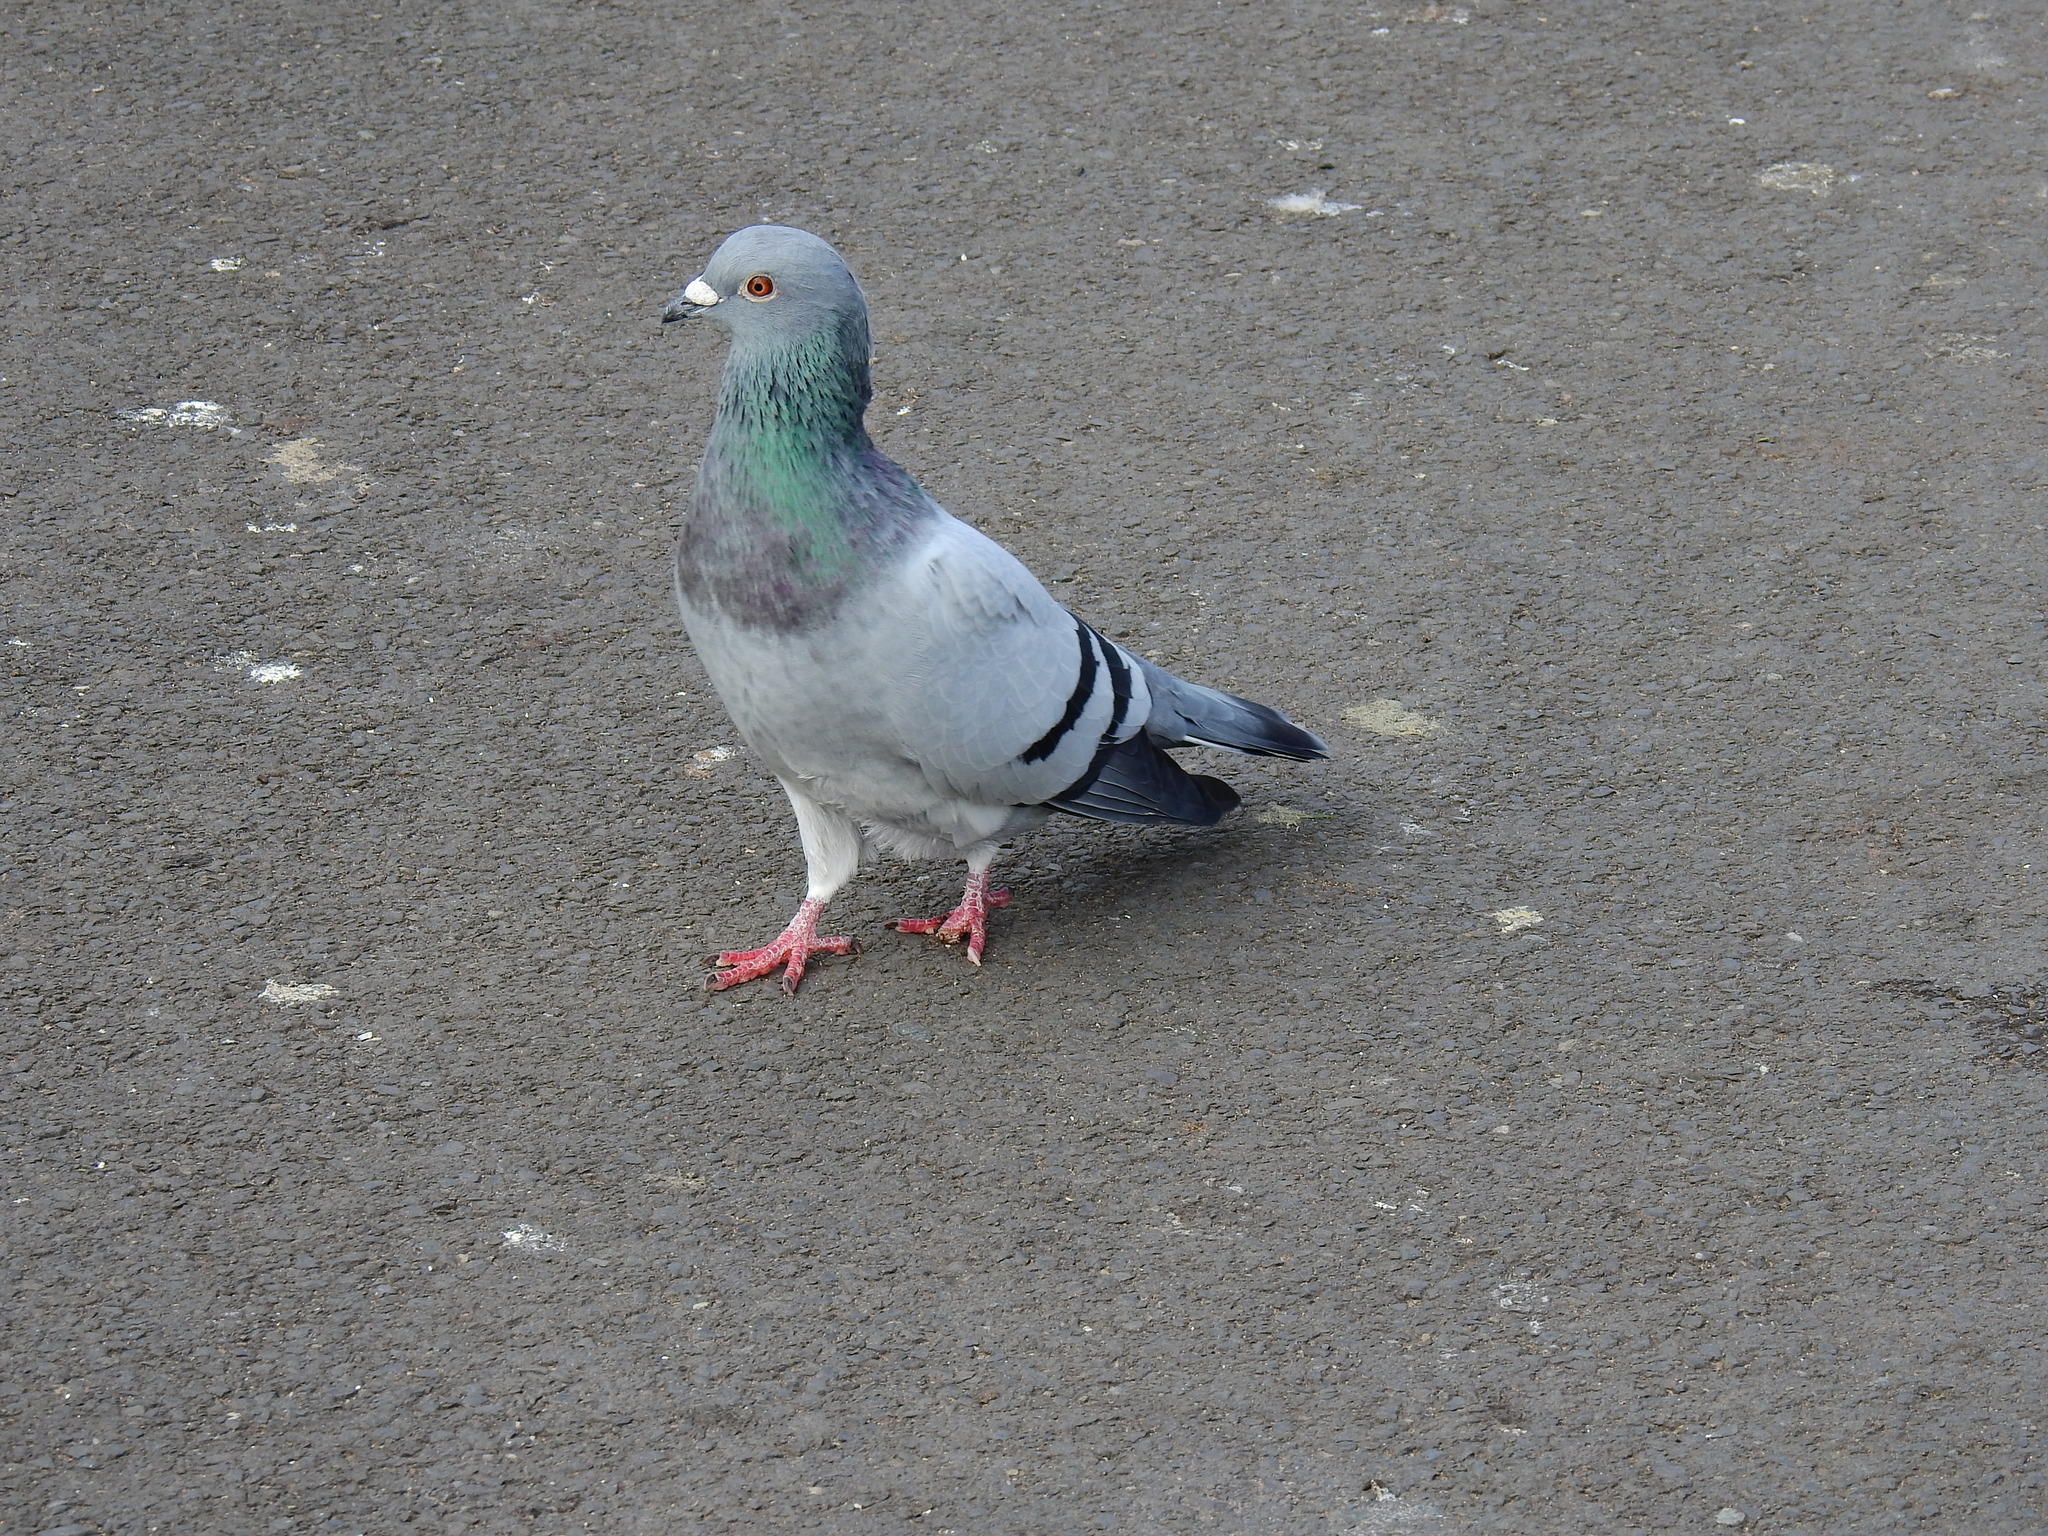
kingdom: Animalia
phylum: Chordata
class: Aves
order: Columbiformes
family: Columbidae
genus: Columba
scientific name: Columba livia
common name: Rock pigeon
